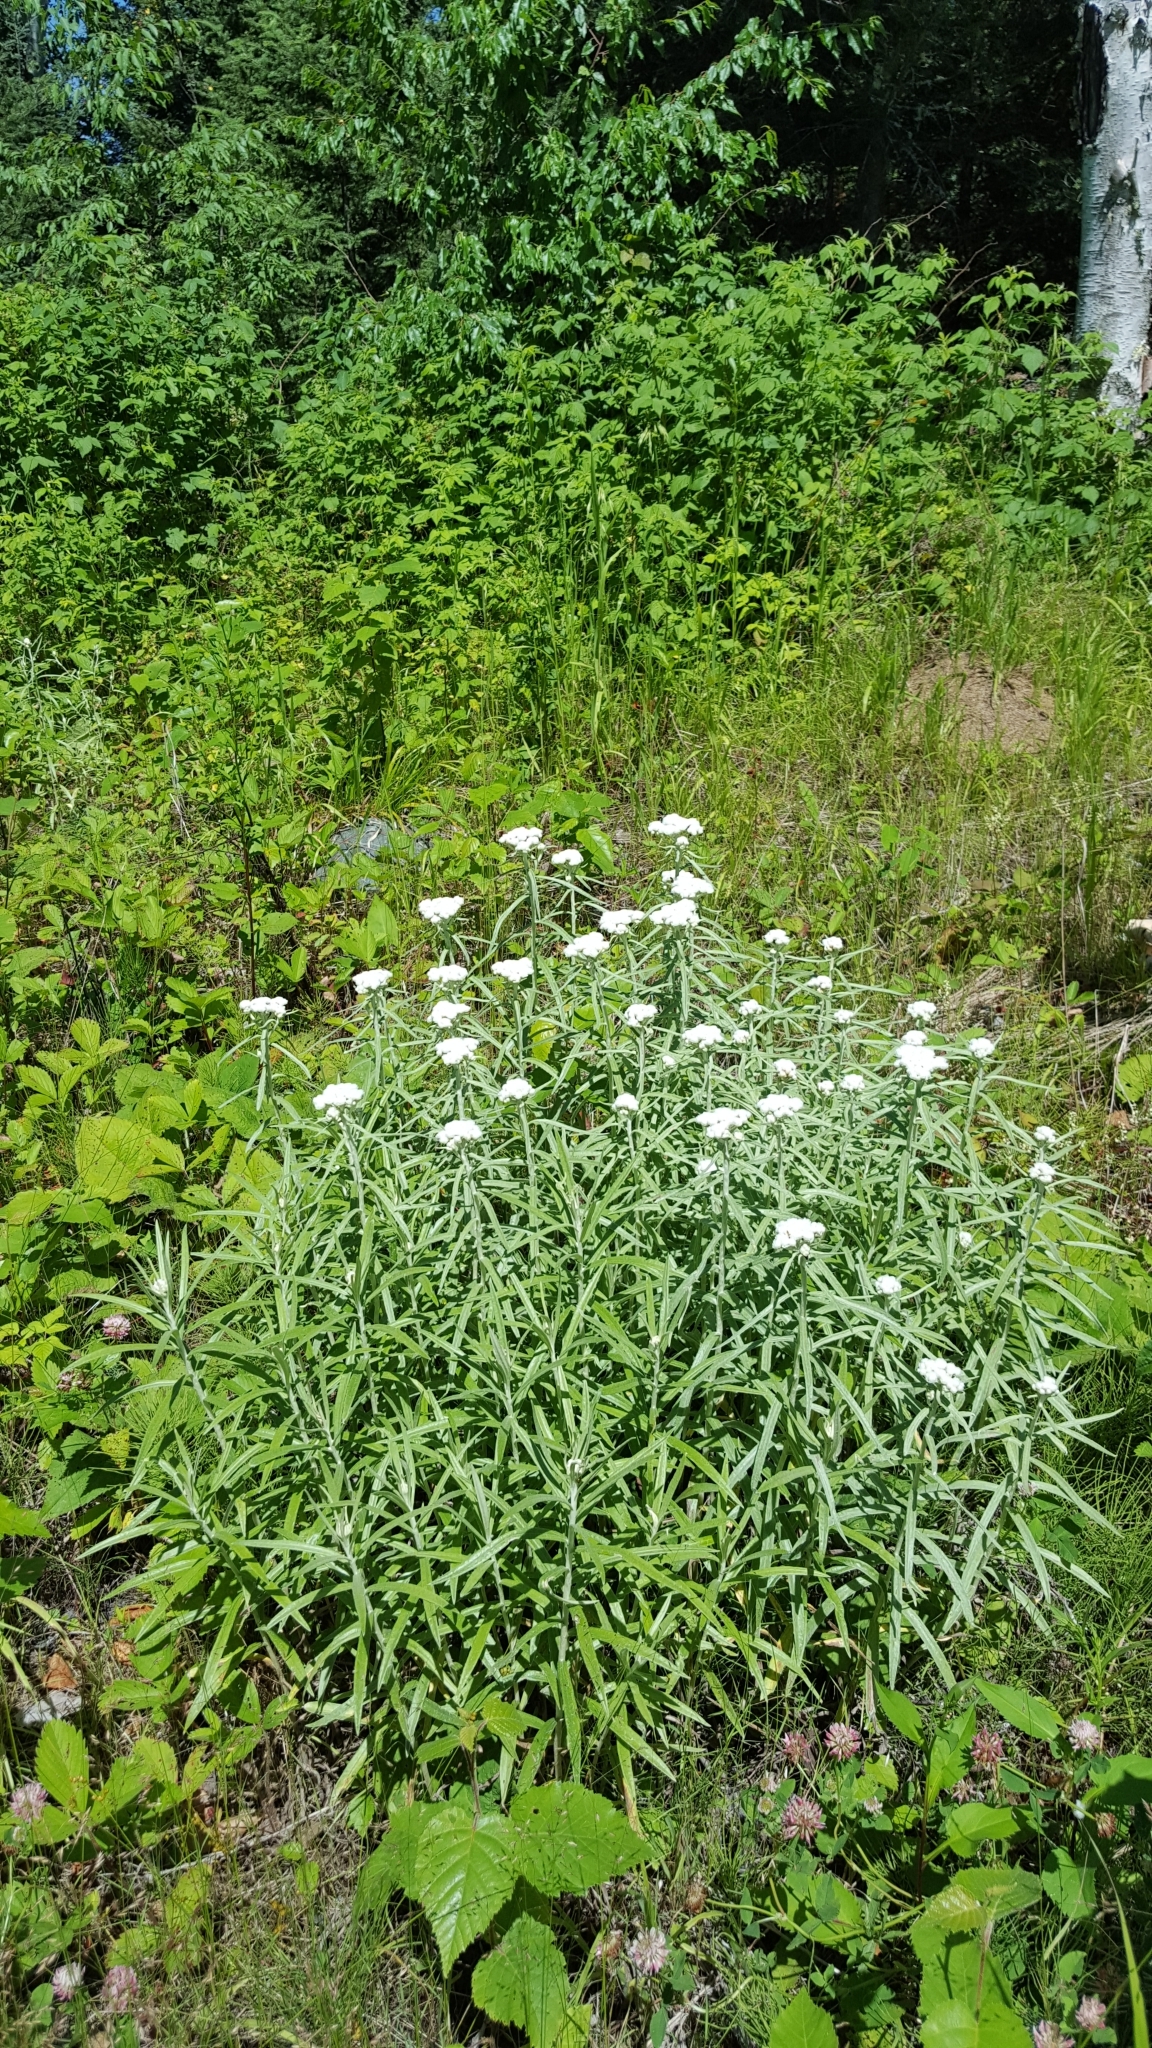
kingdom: Plantae
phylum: Tracheophyta
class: Magnoliopsida
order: Asterales
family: Asteraceae
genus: Anaphalis
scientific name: Anaphalis margaritacea
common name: Pearly everlasting
